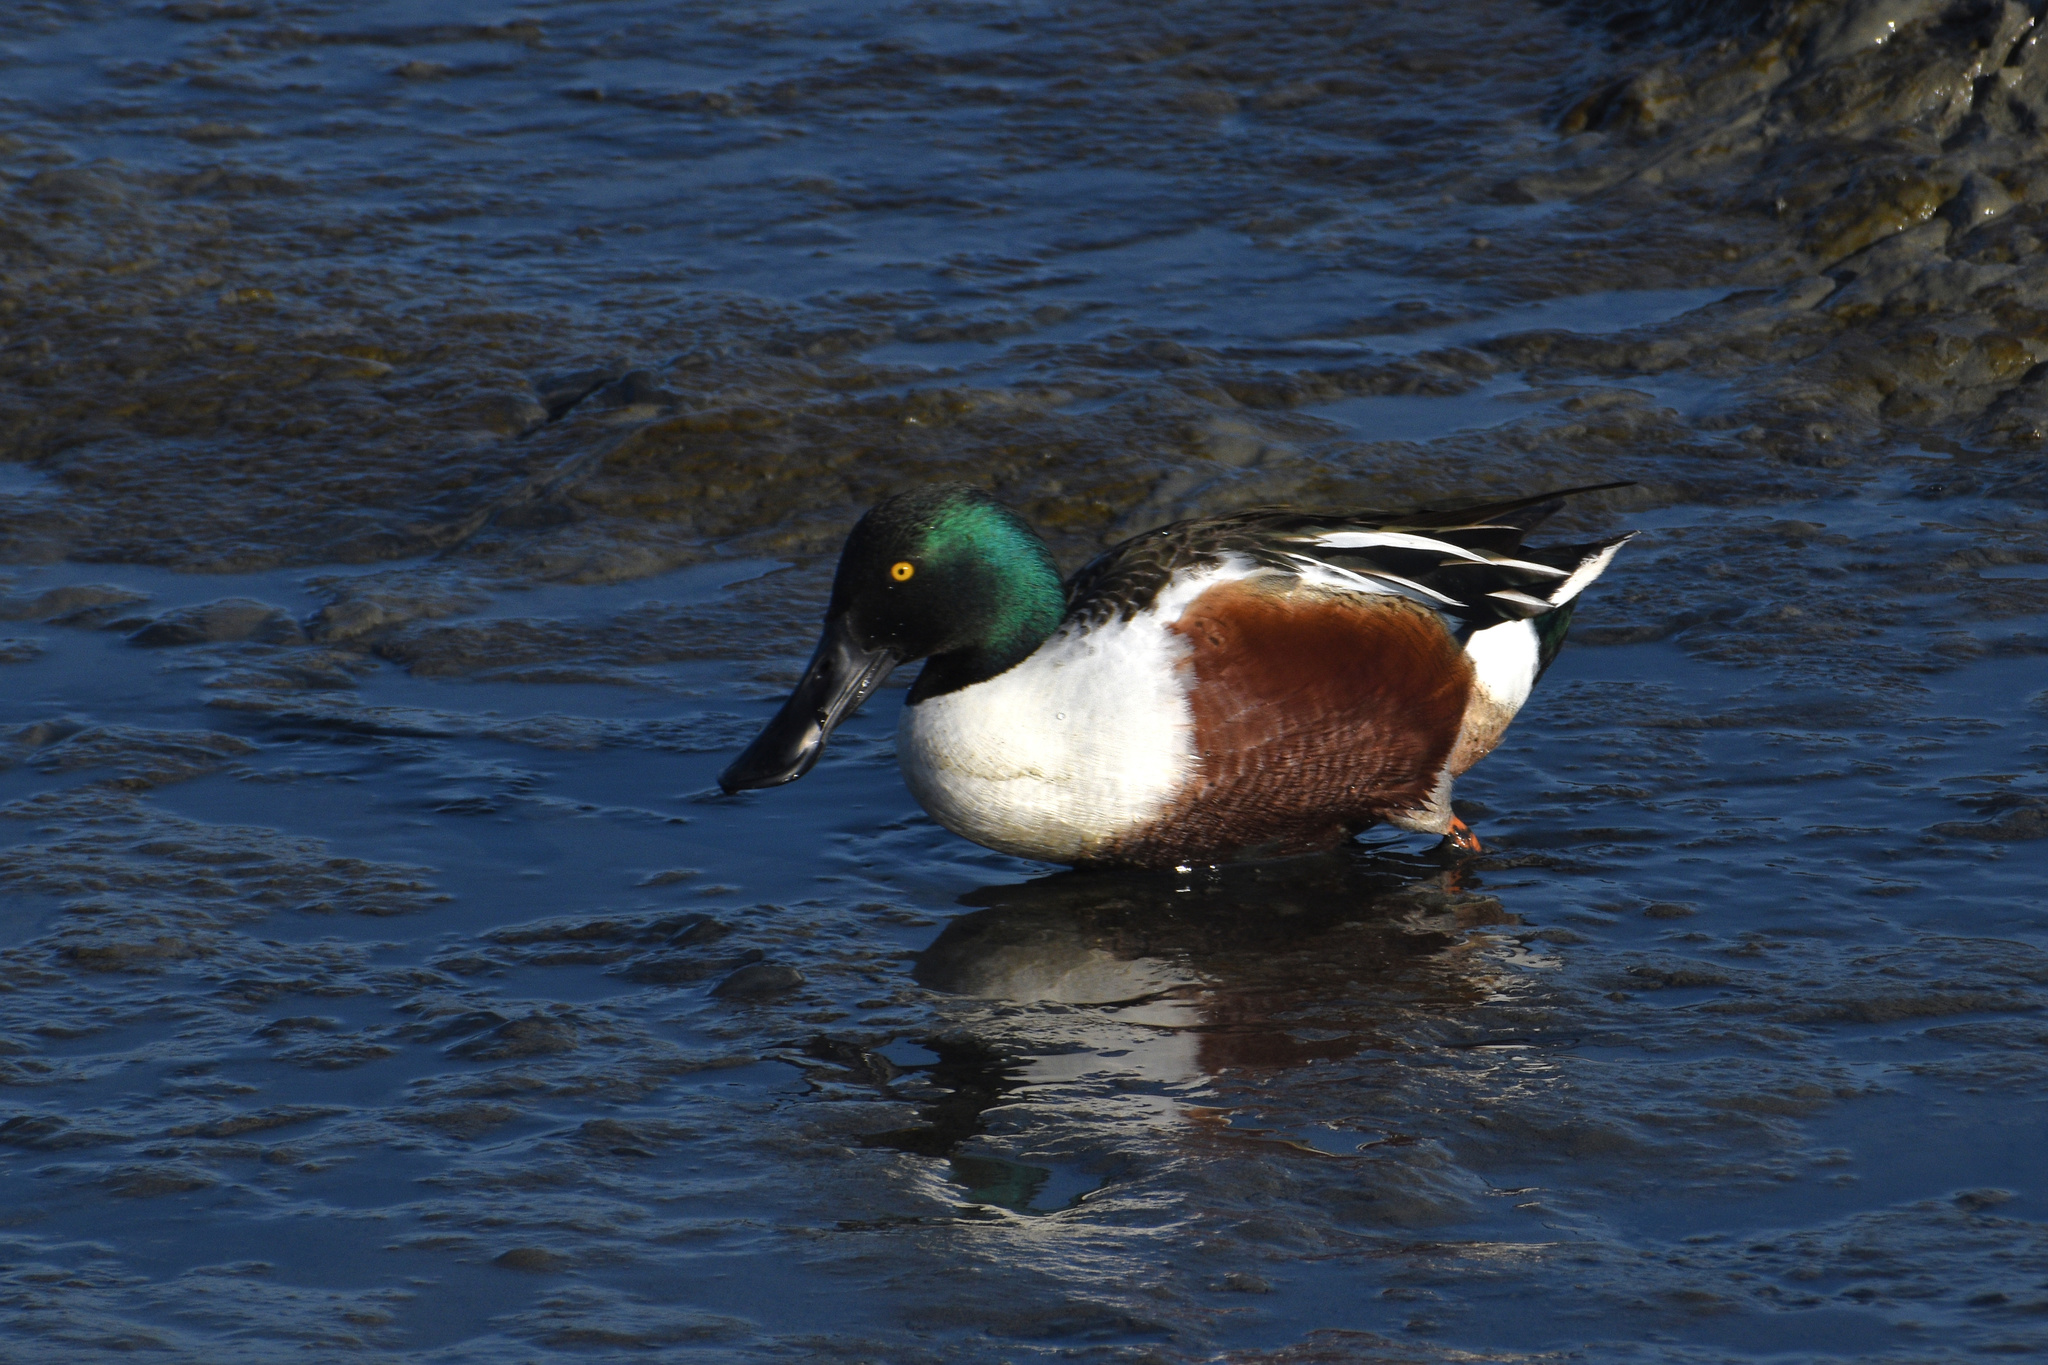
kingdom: Animalia
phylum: Chordata
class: Aves
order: Anseriformes
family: Anatidae
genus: Spatula
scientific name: Spatula clypeata
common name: Northern shoveler
